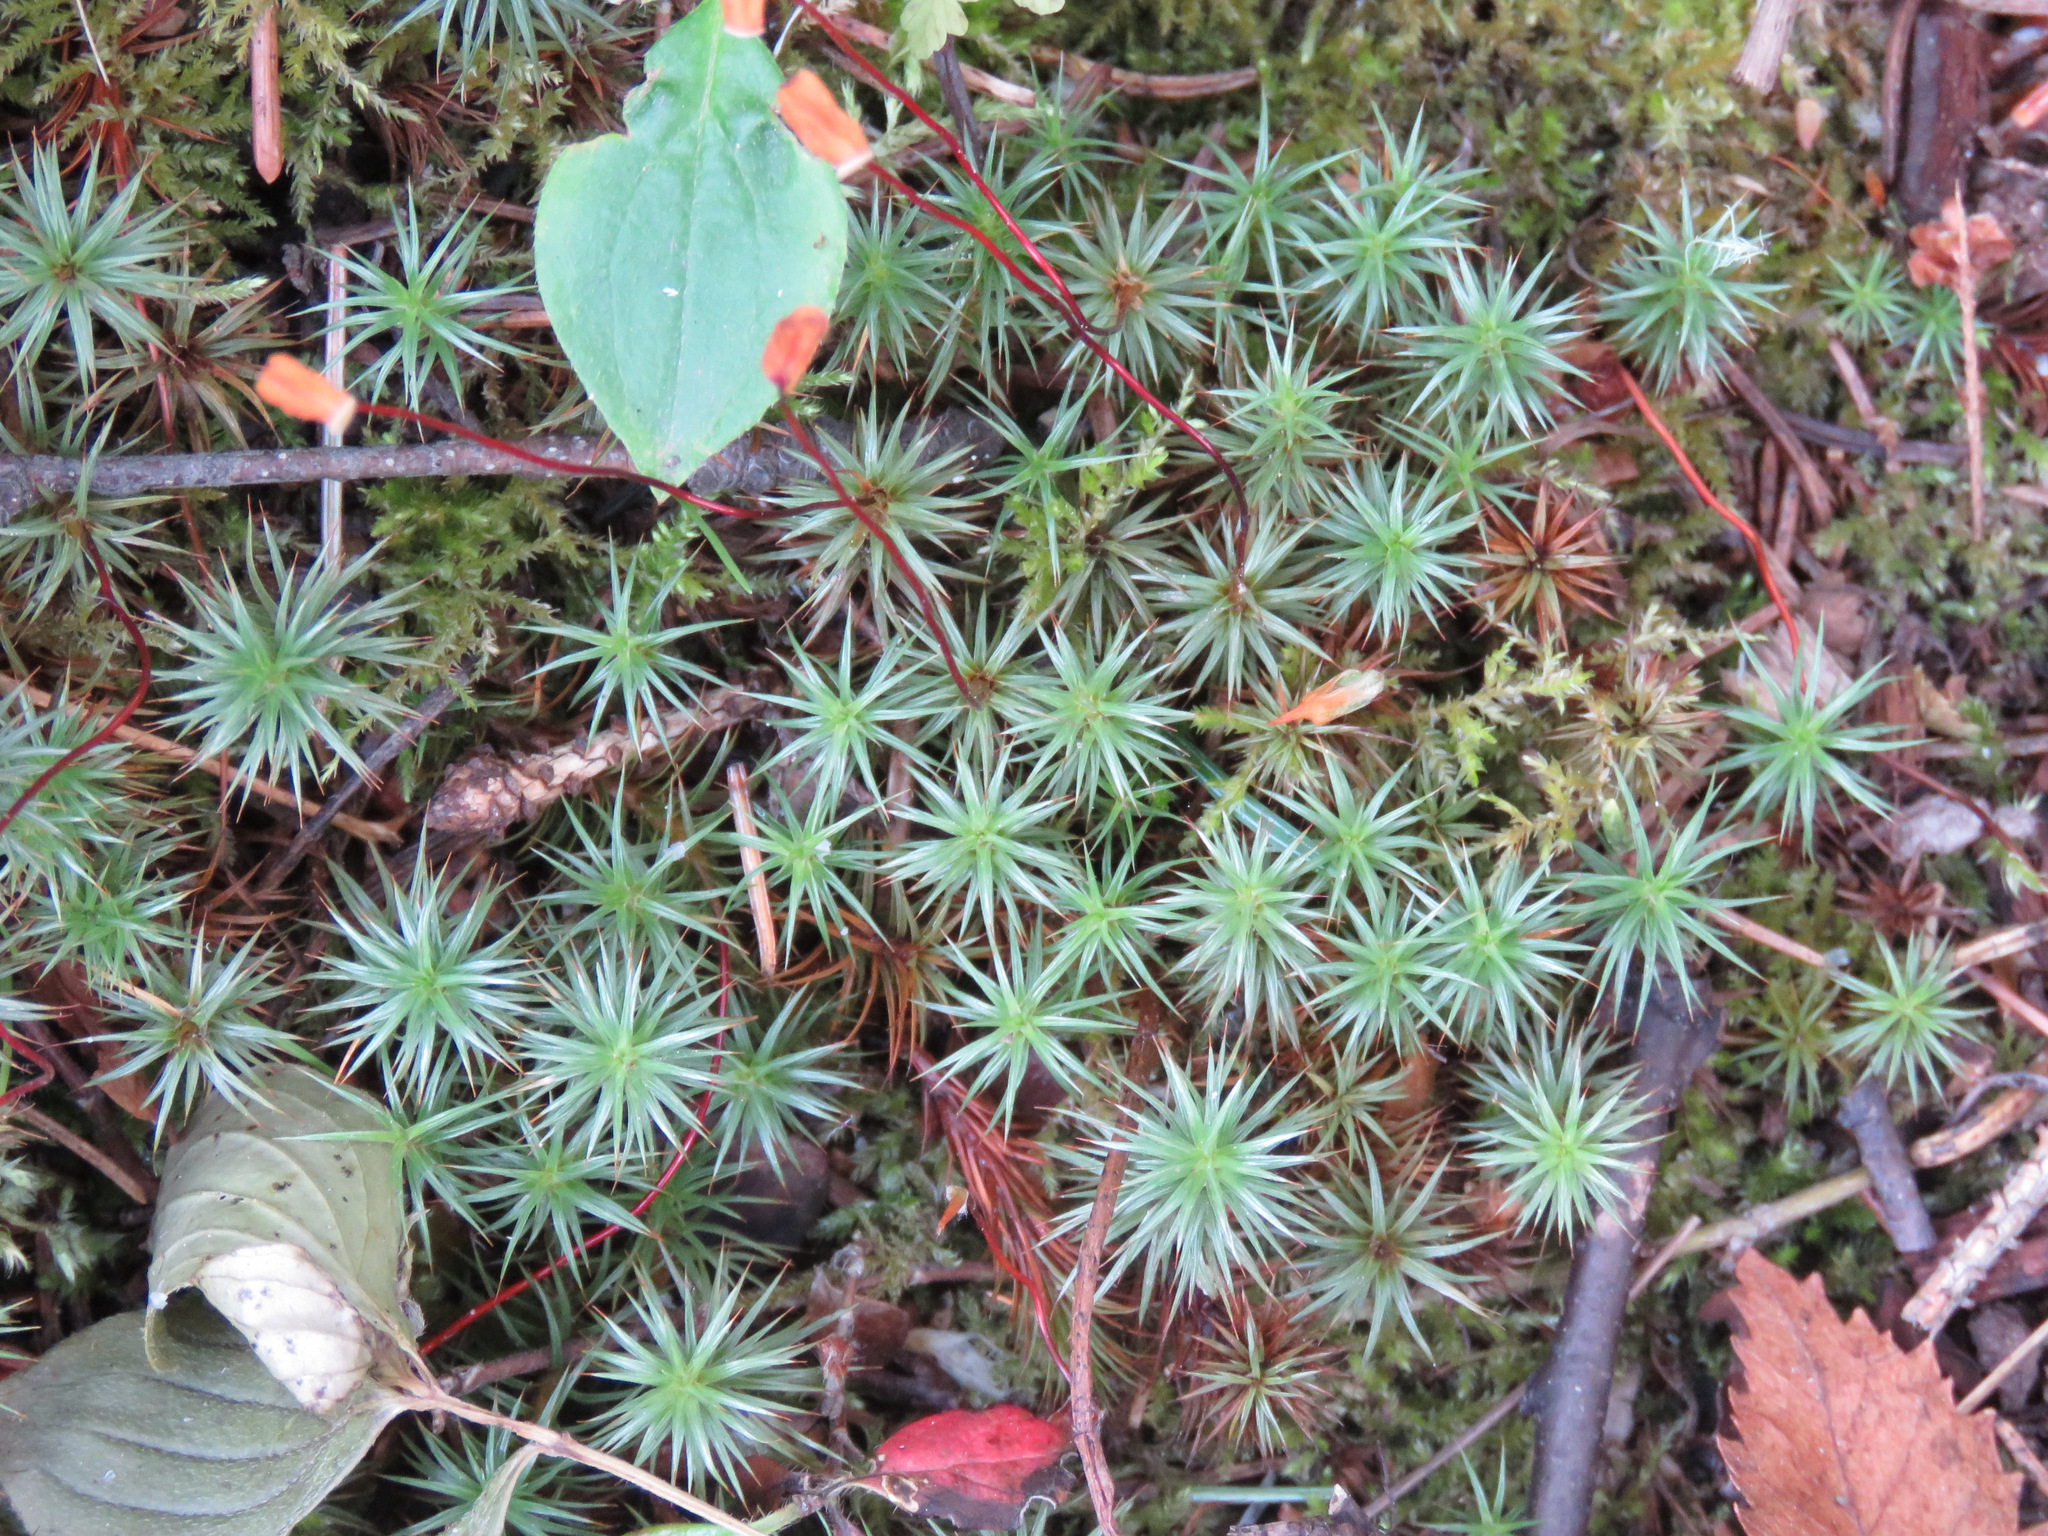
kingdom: Plantae
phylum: Bryophyta
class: Polytrichopsida
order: Polytrichales
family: Polytrichaceae
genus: Polytrichum
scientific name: Polytrichum juniperinum
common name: Juniper haircap moss
